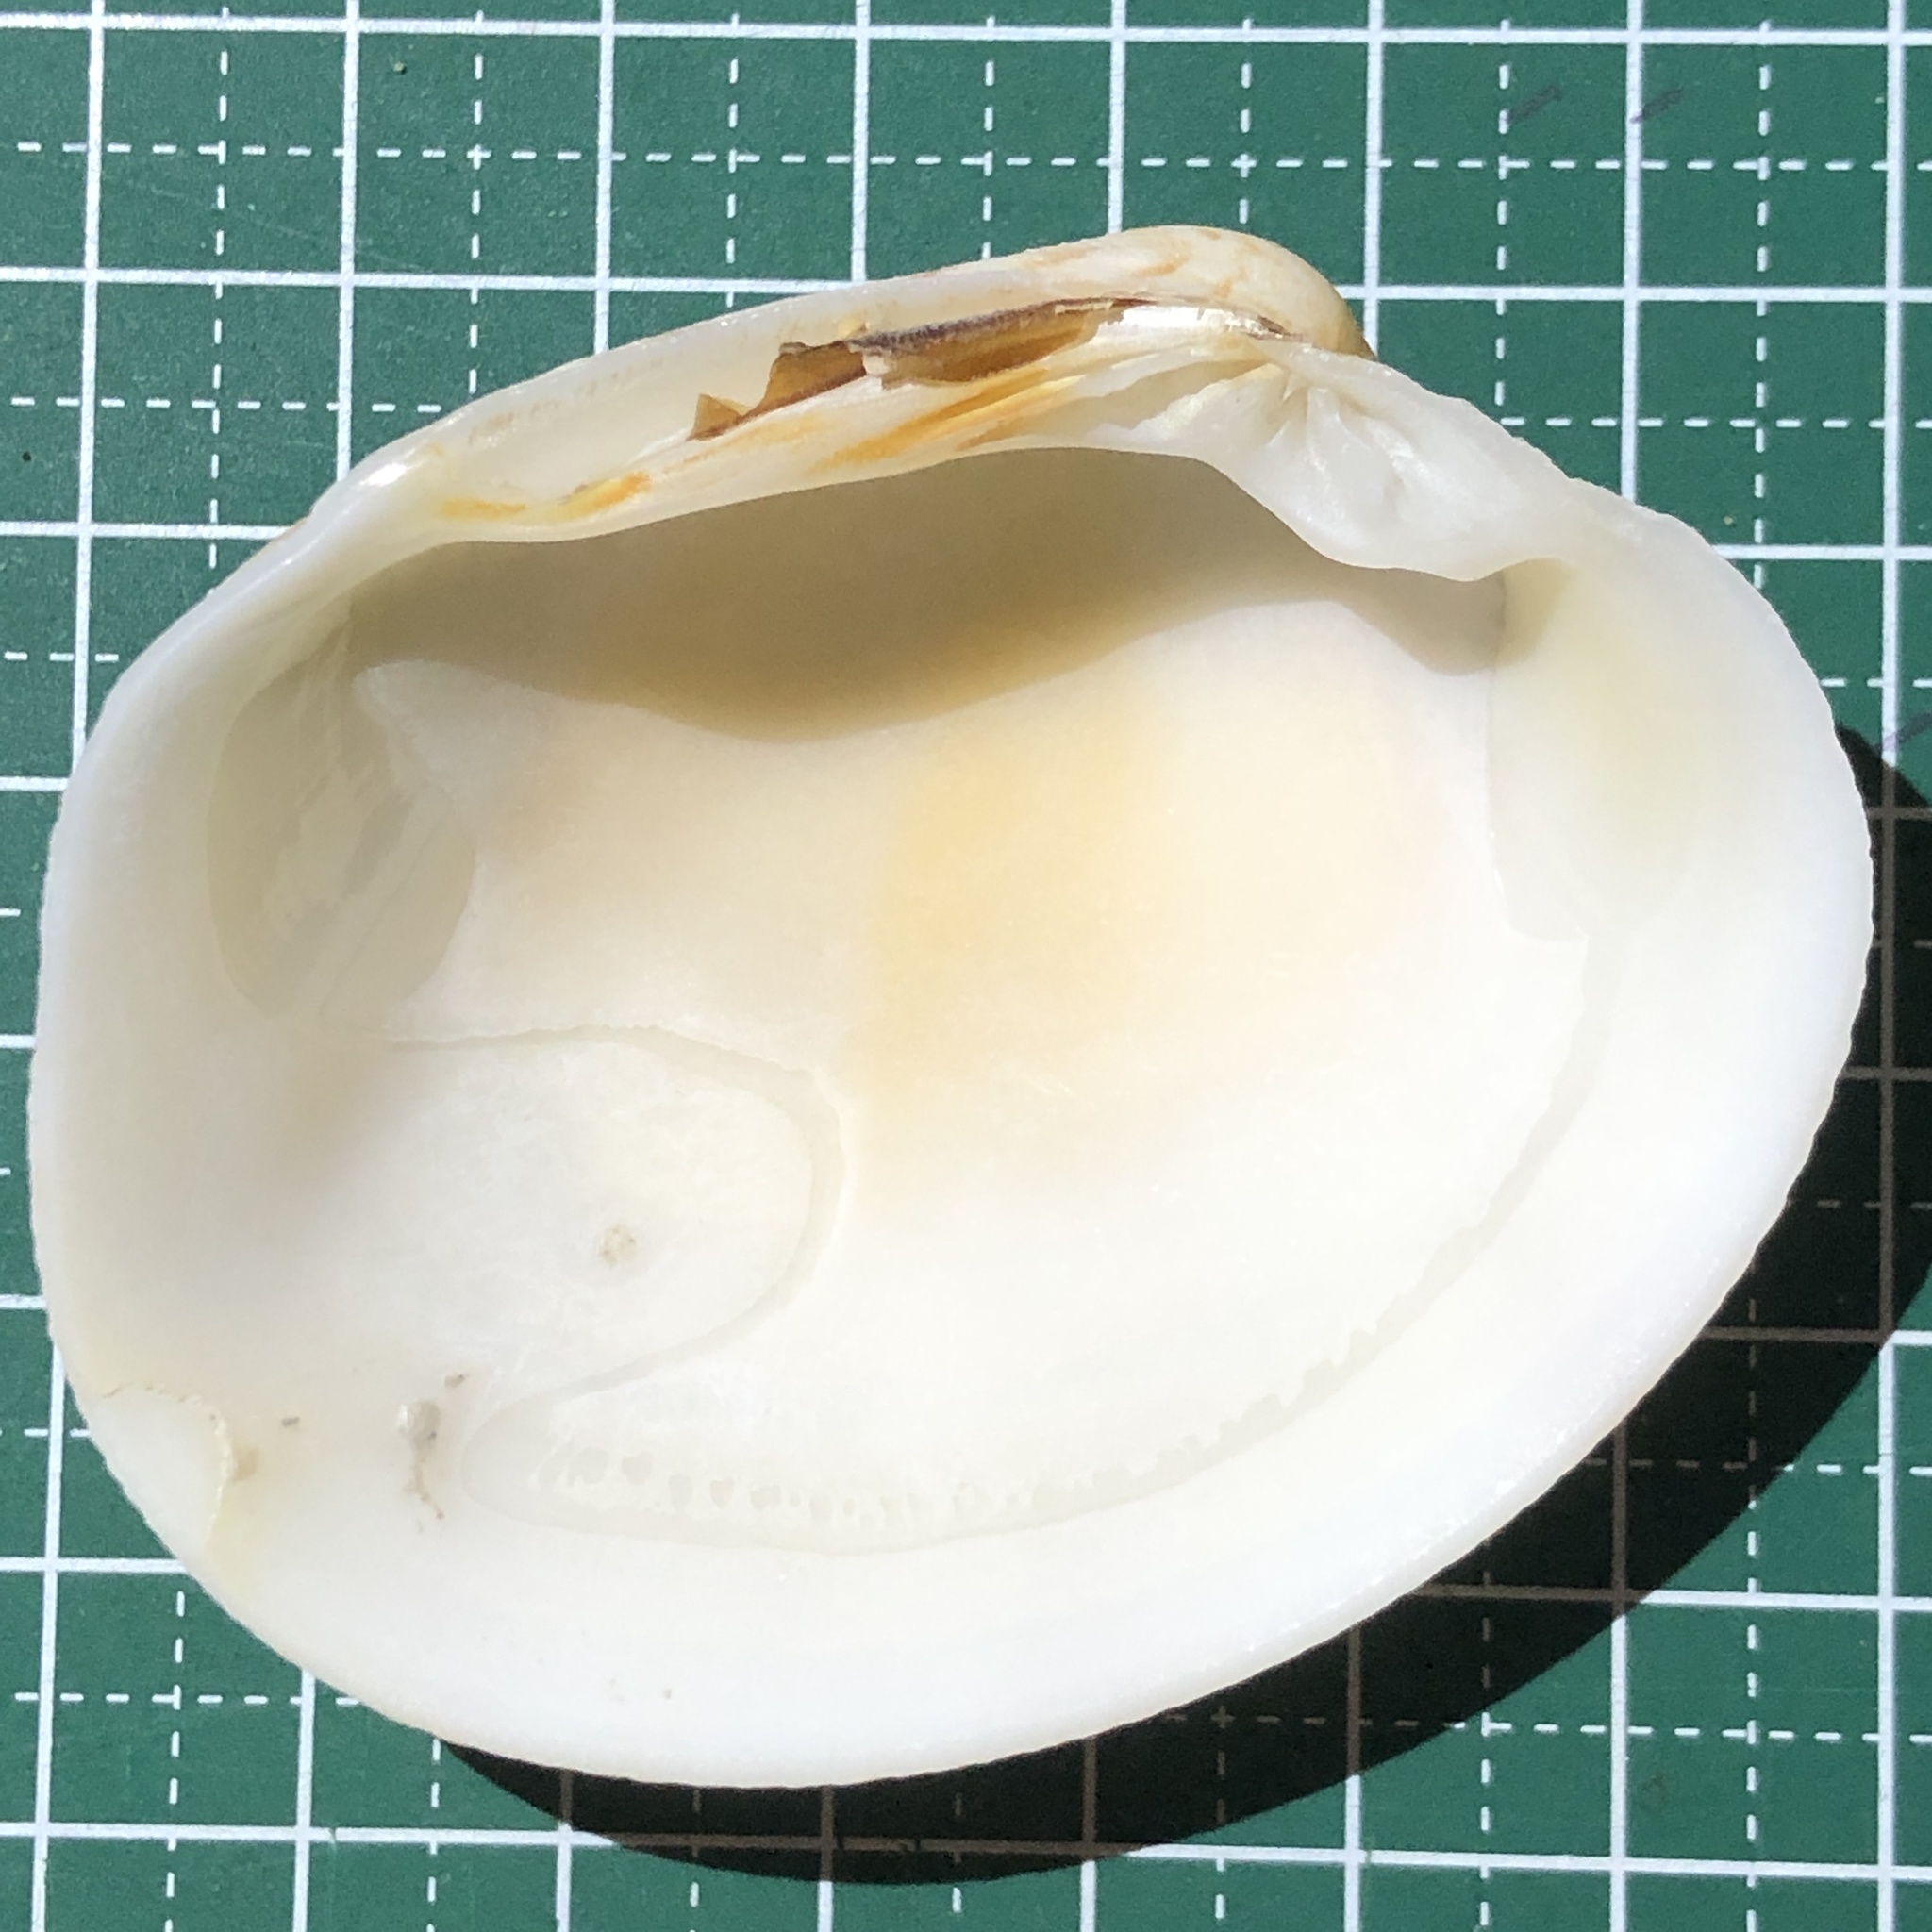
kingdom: Animalia
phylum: Mollusca
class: Bivalvia
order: Venerida
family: Veneridae
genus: Antigona
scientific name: Antigona chemnitzii
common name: Chemnitz's venus
